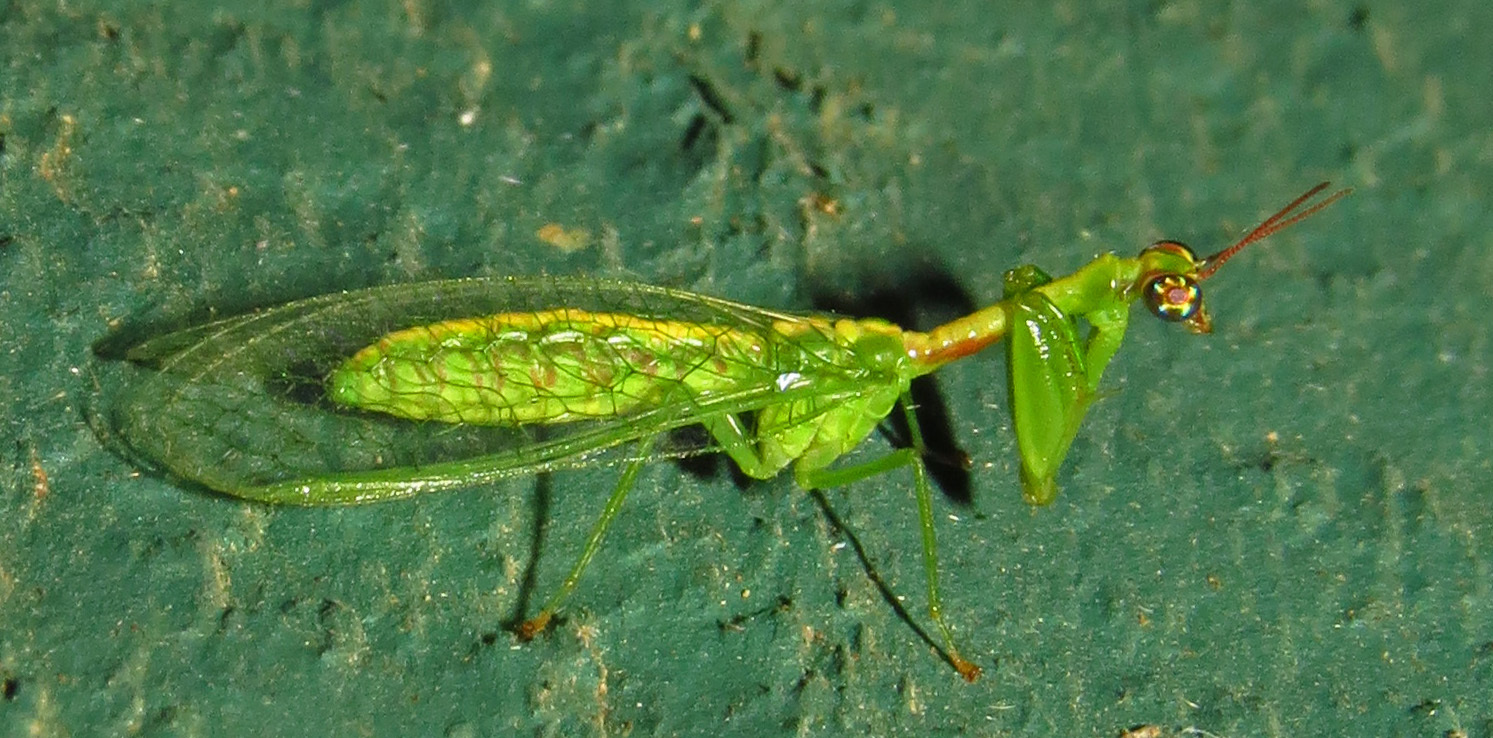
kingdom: Animalia
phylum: Arthropoda
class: Insecta
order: Neuroptera
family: Mantispidae
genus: Zeugomantispa
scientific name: Zeugomantispa minuta
